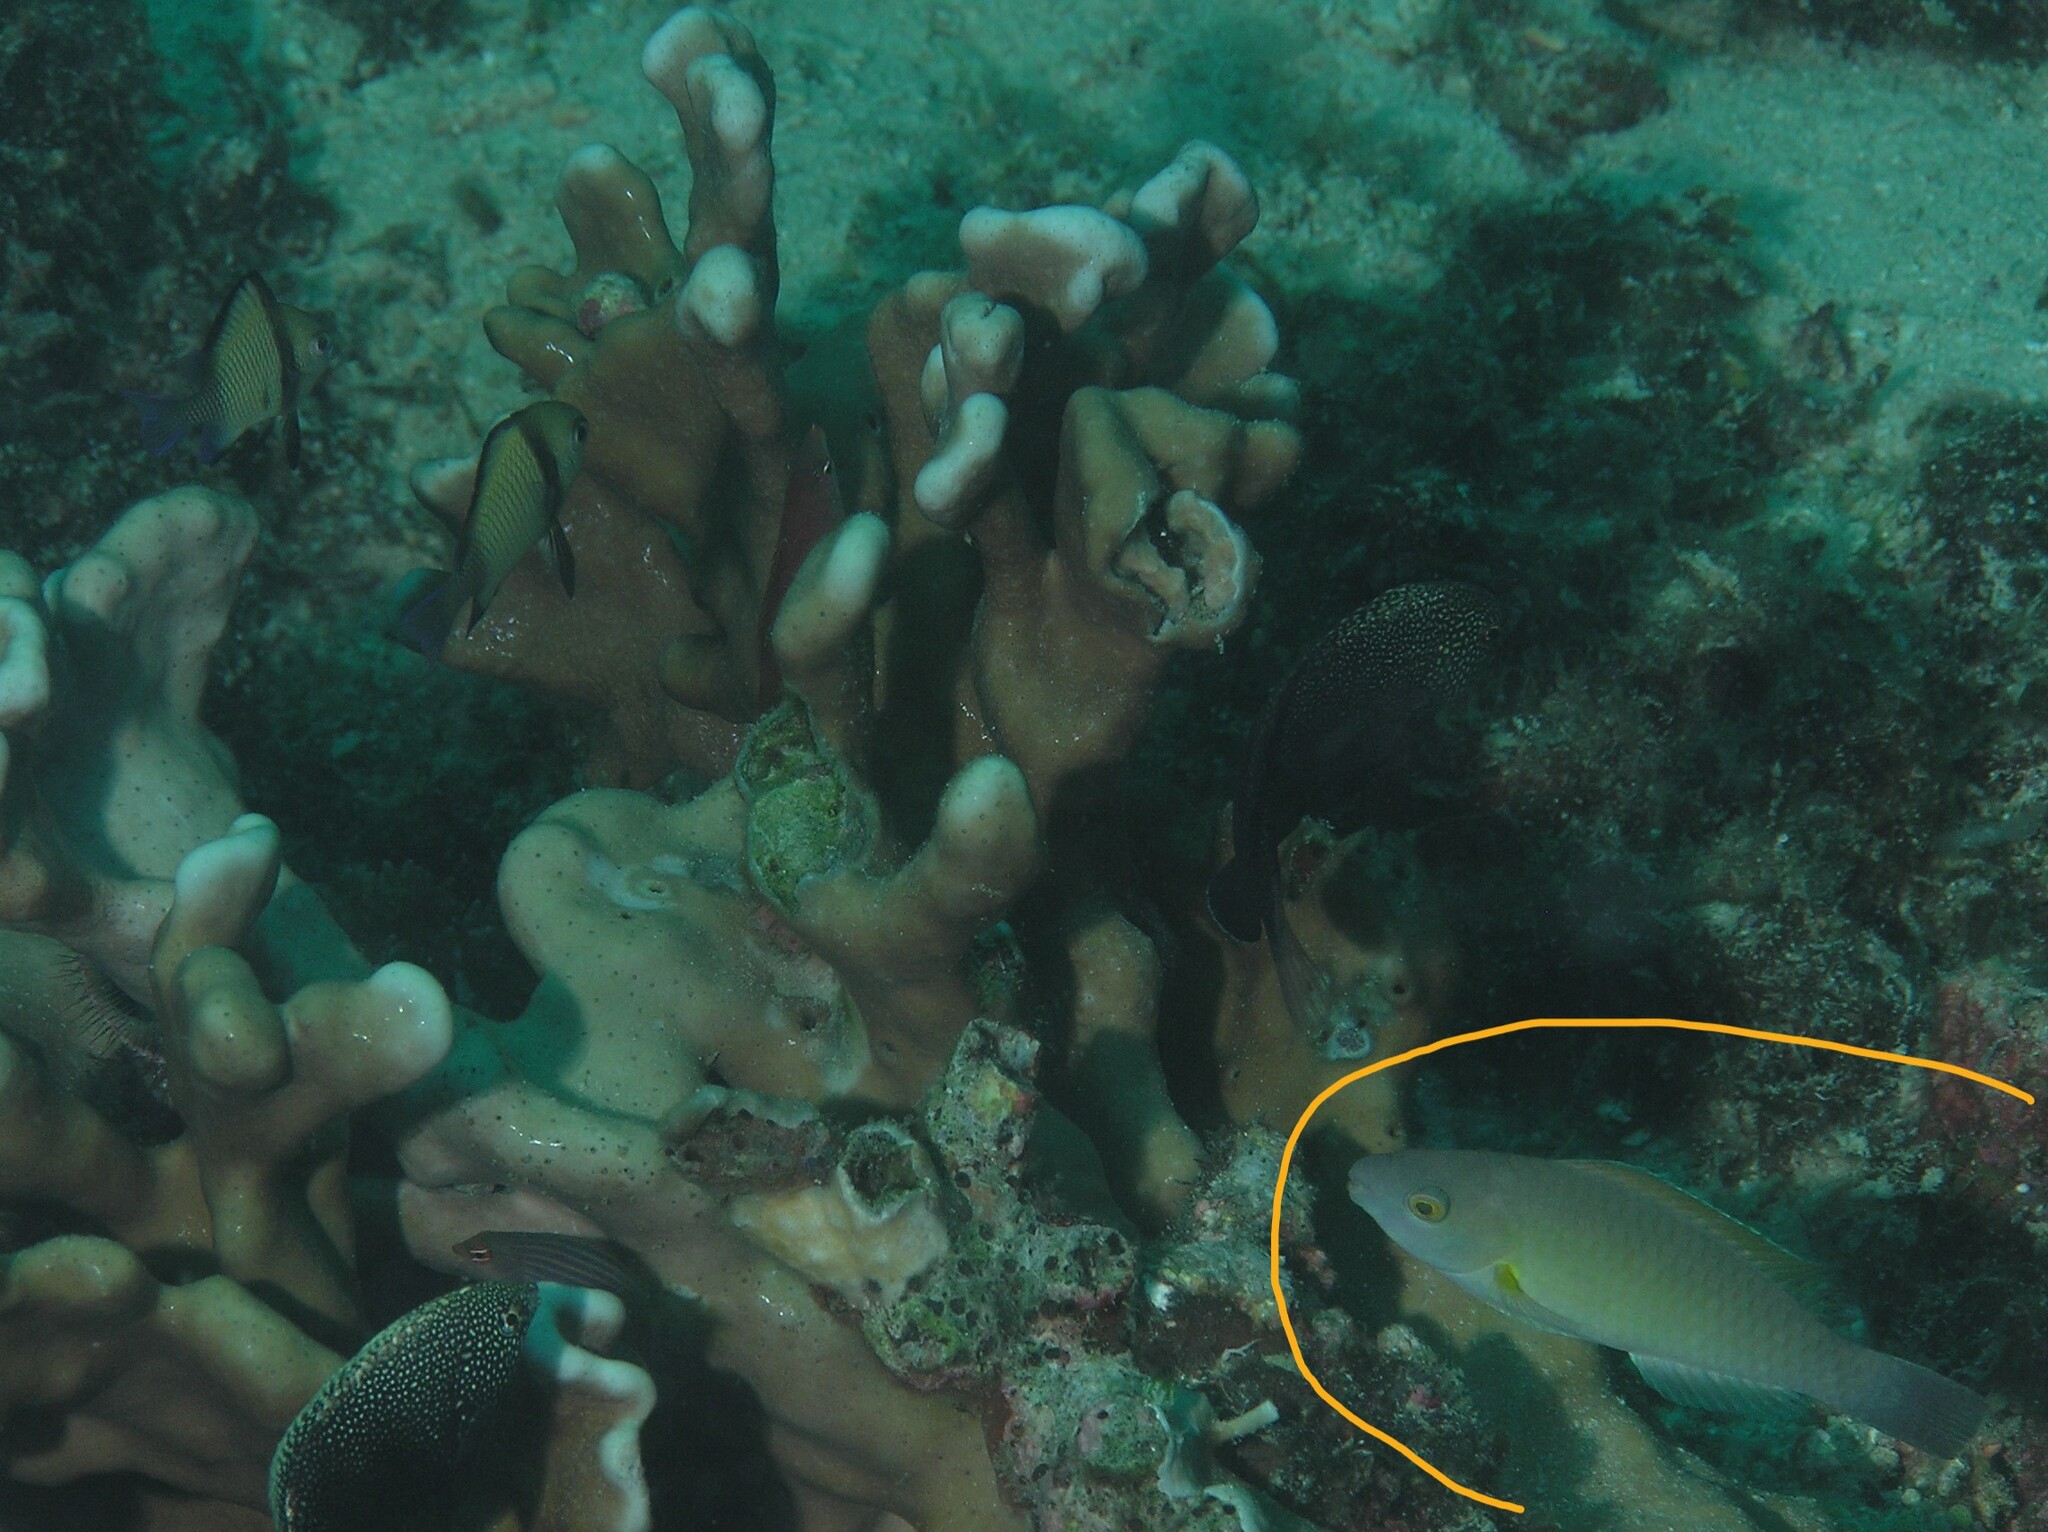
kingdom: Animalia
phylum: Chordata
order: Perciformes
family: Scaridae
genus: Scarus
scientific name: Scarus flavipectoralis
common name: Yellowfin parrotfish
